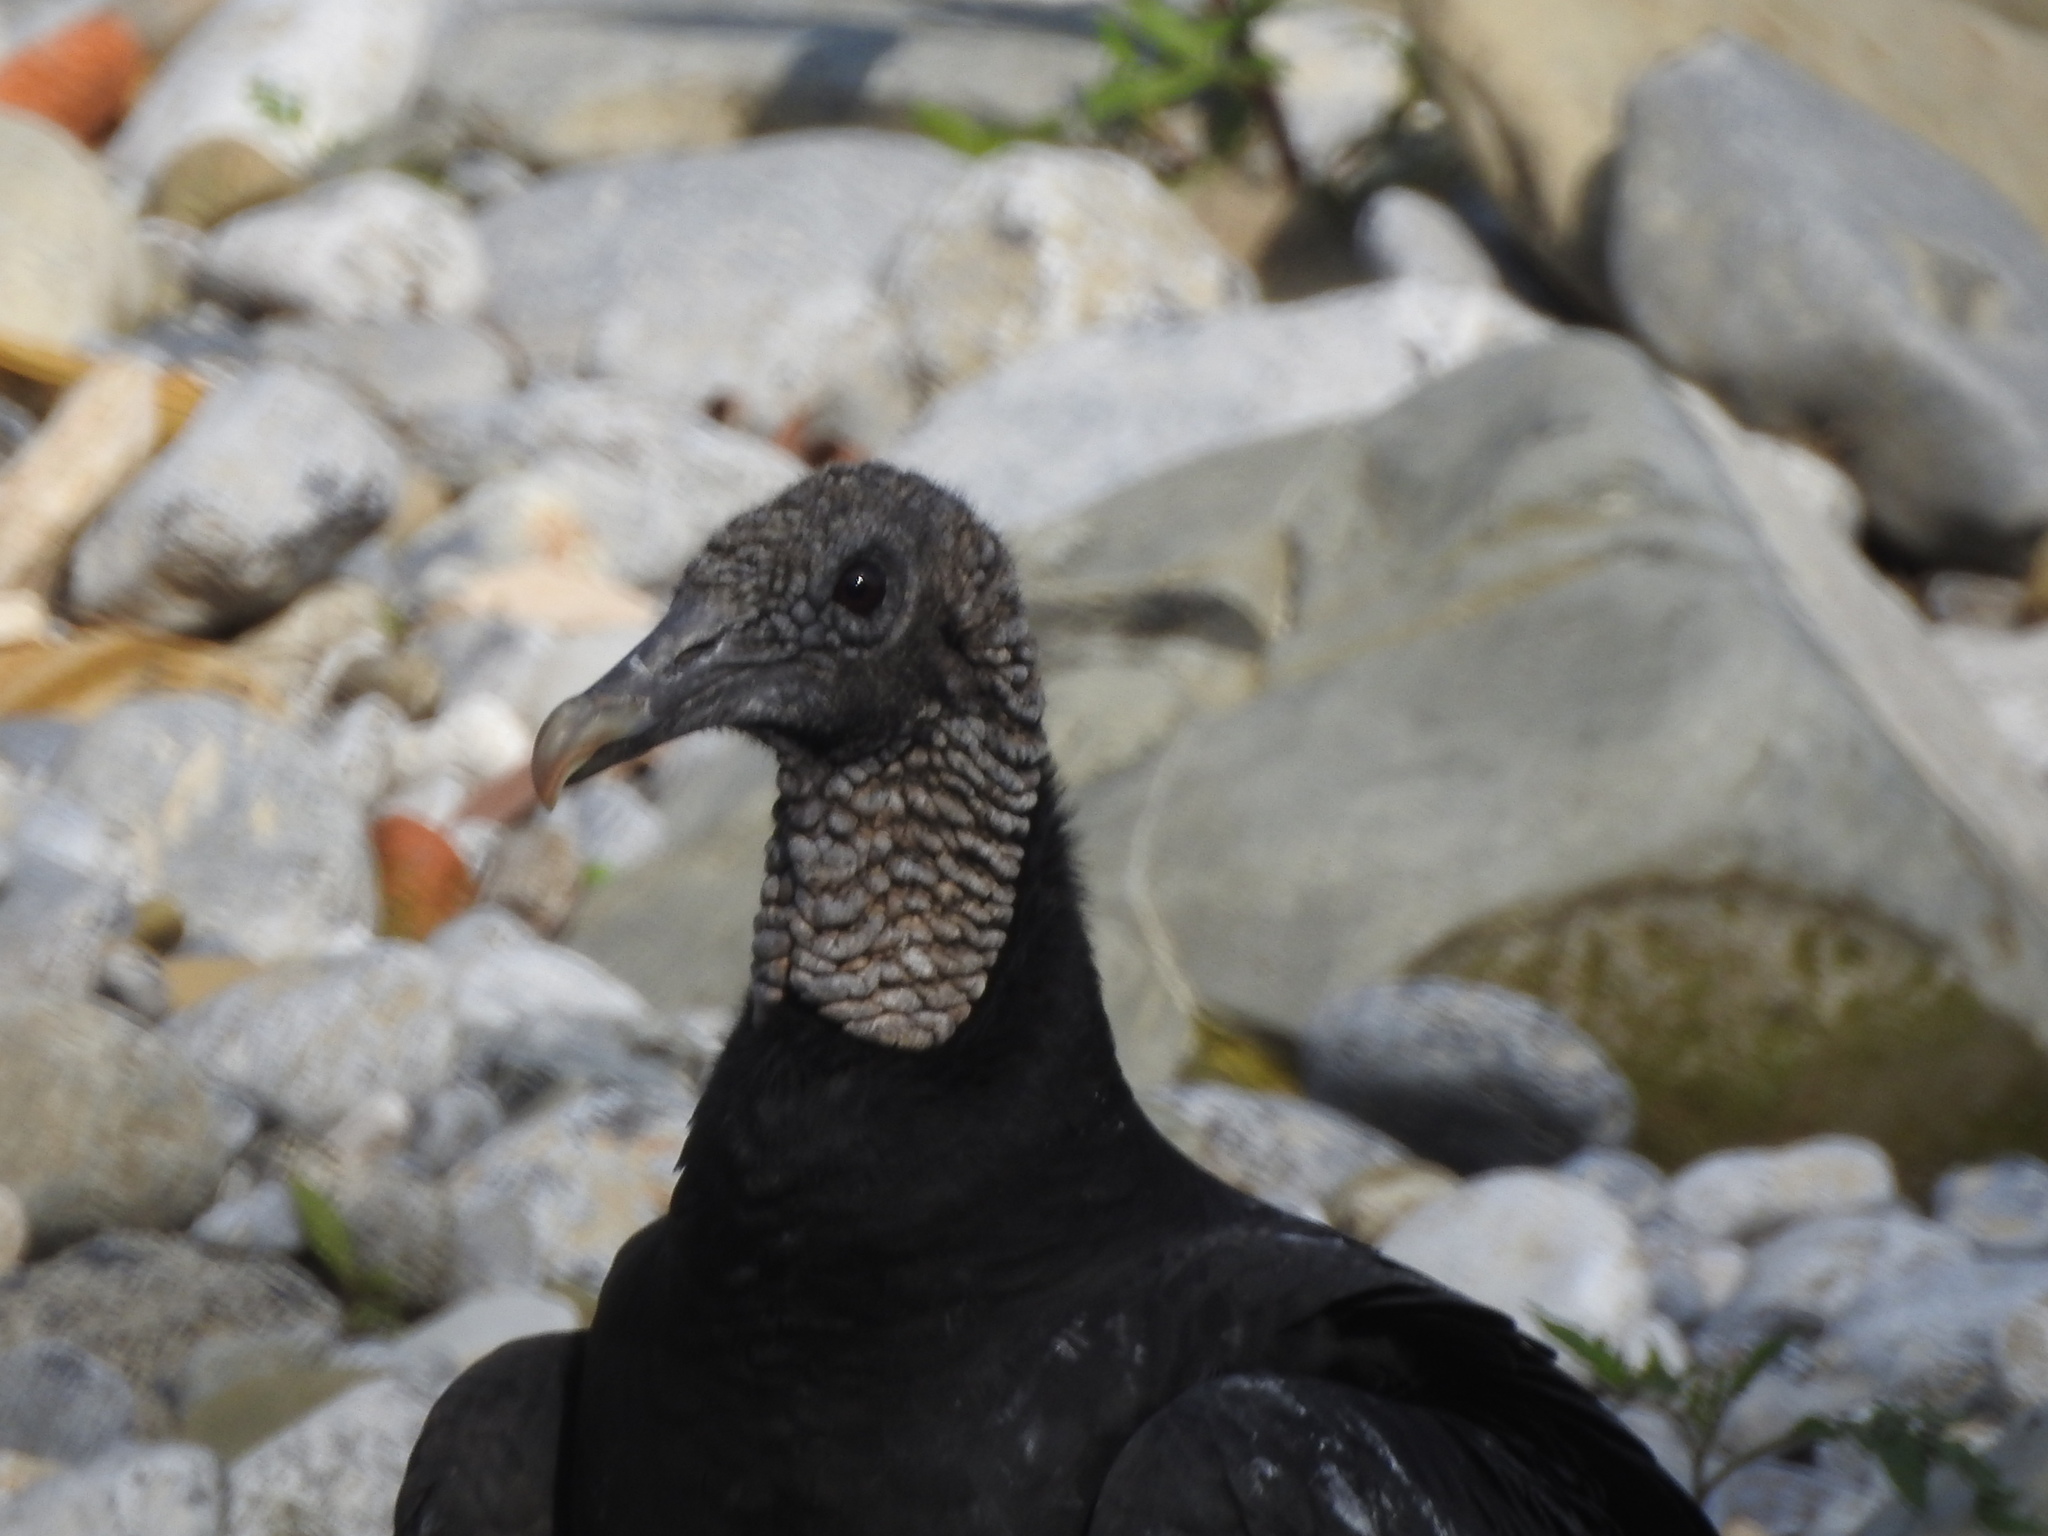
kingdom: Animalia
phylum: Chordata
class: Aves
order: Accipitriformes
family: Cathartidae
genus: Coragyps
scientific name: Coragyps atratus
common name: Black vulture
